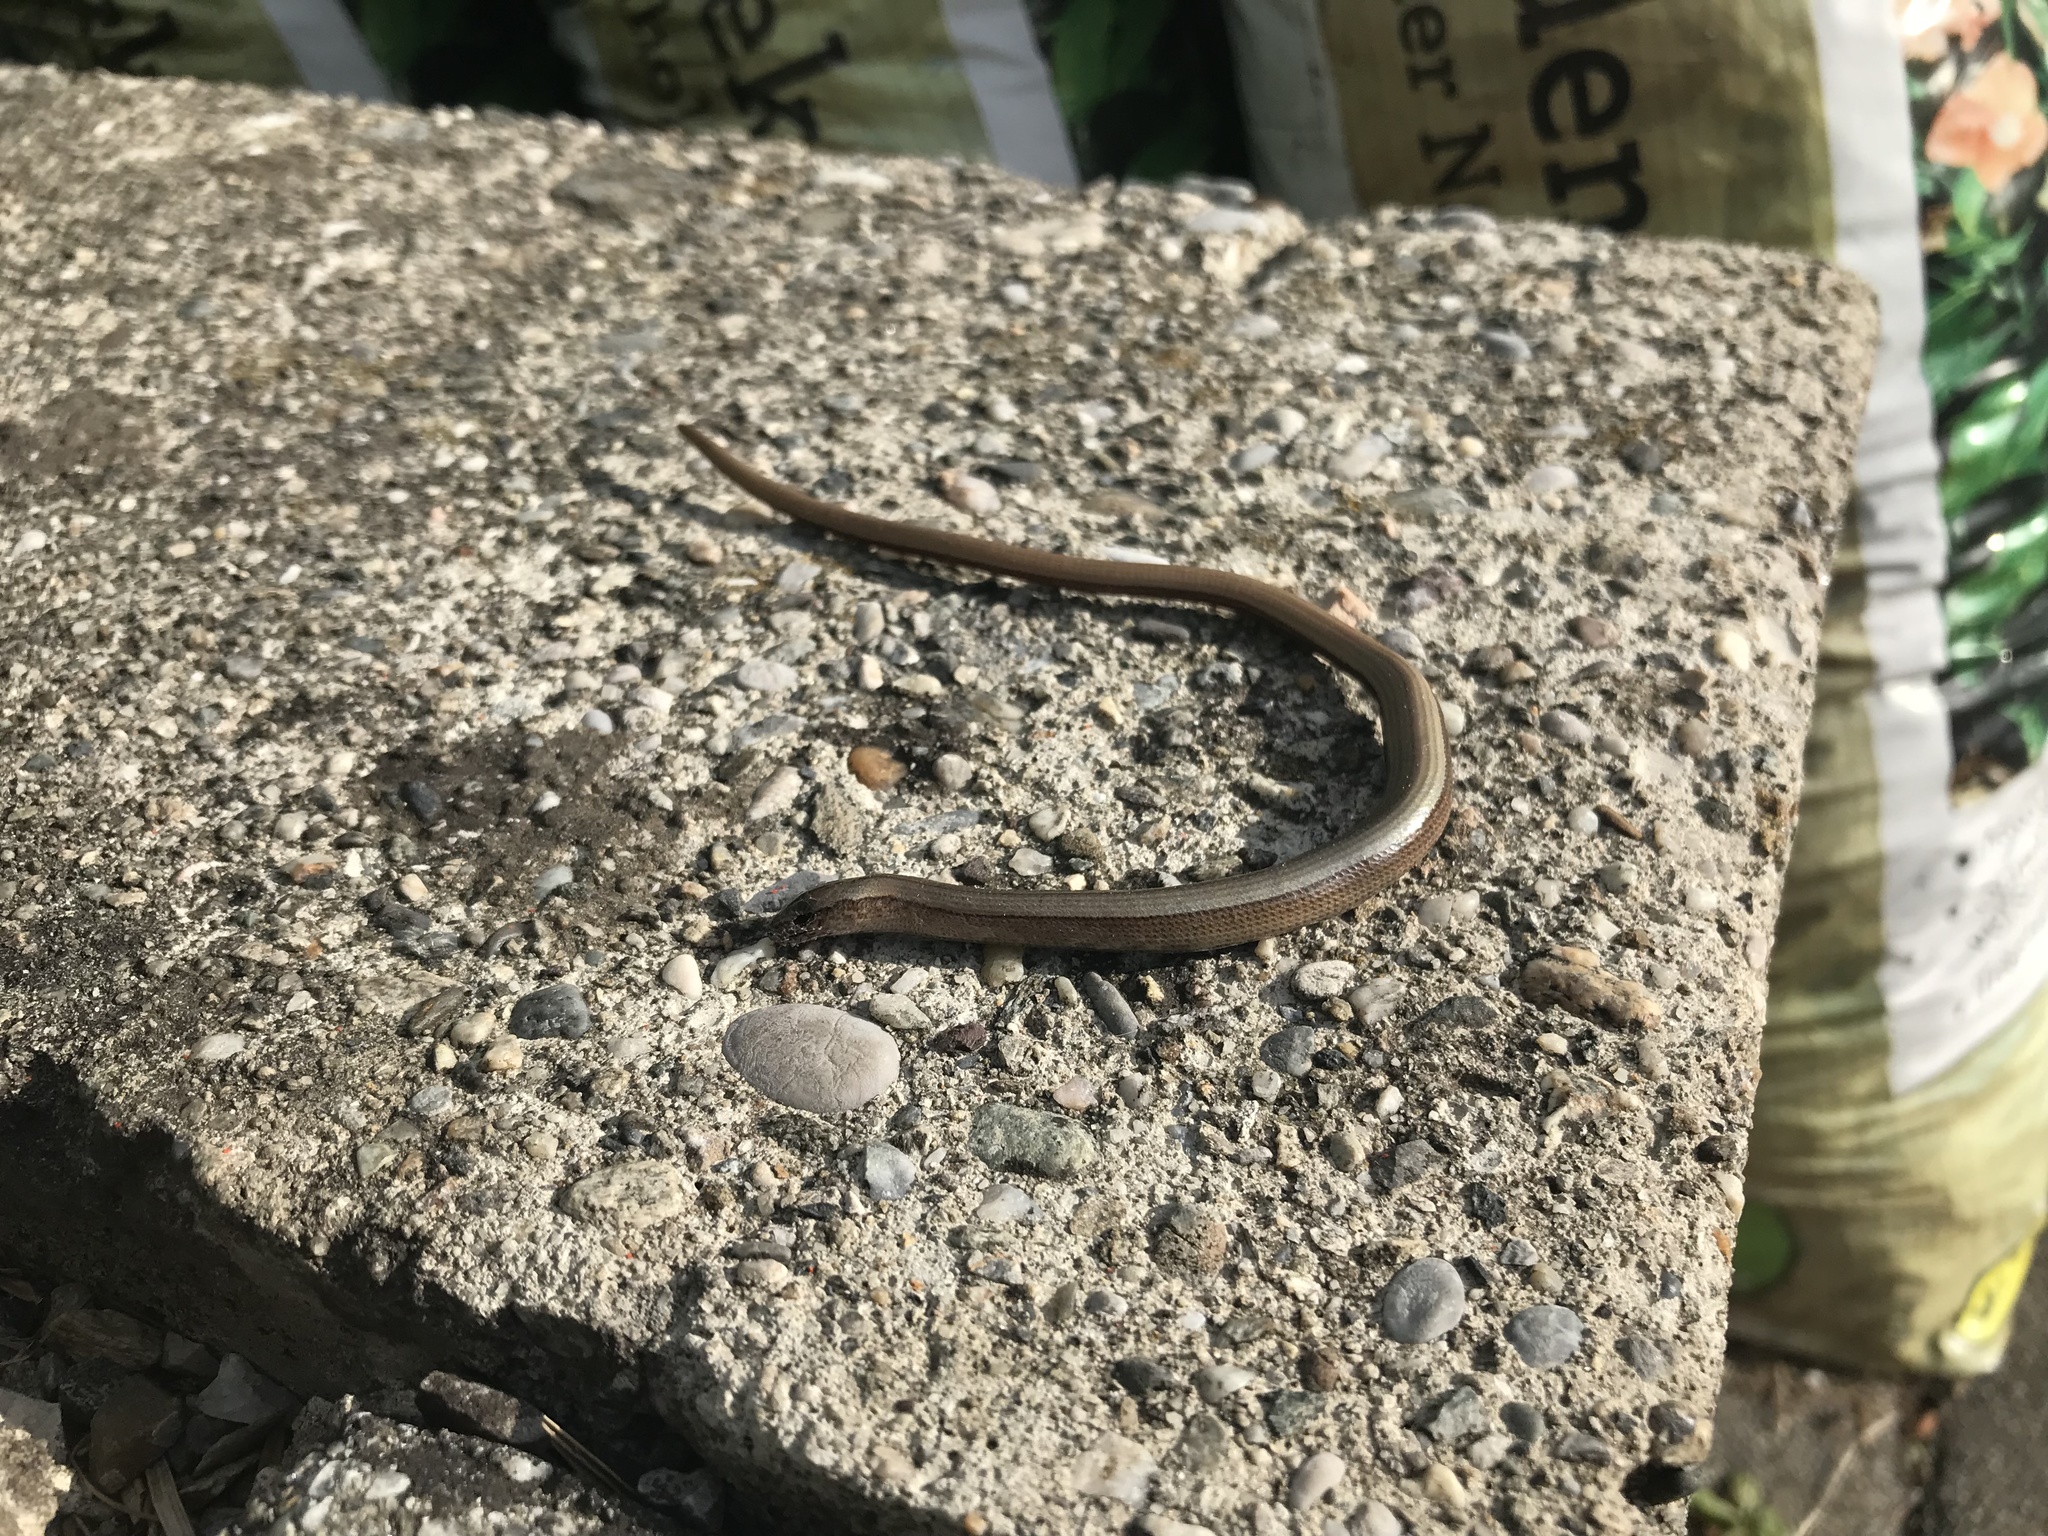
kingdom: Animalia
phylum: Chordata
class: Squamata
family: Anguidae
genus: Anguis
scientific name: Anguis fragilis
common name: Slow worm
